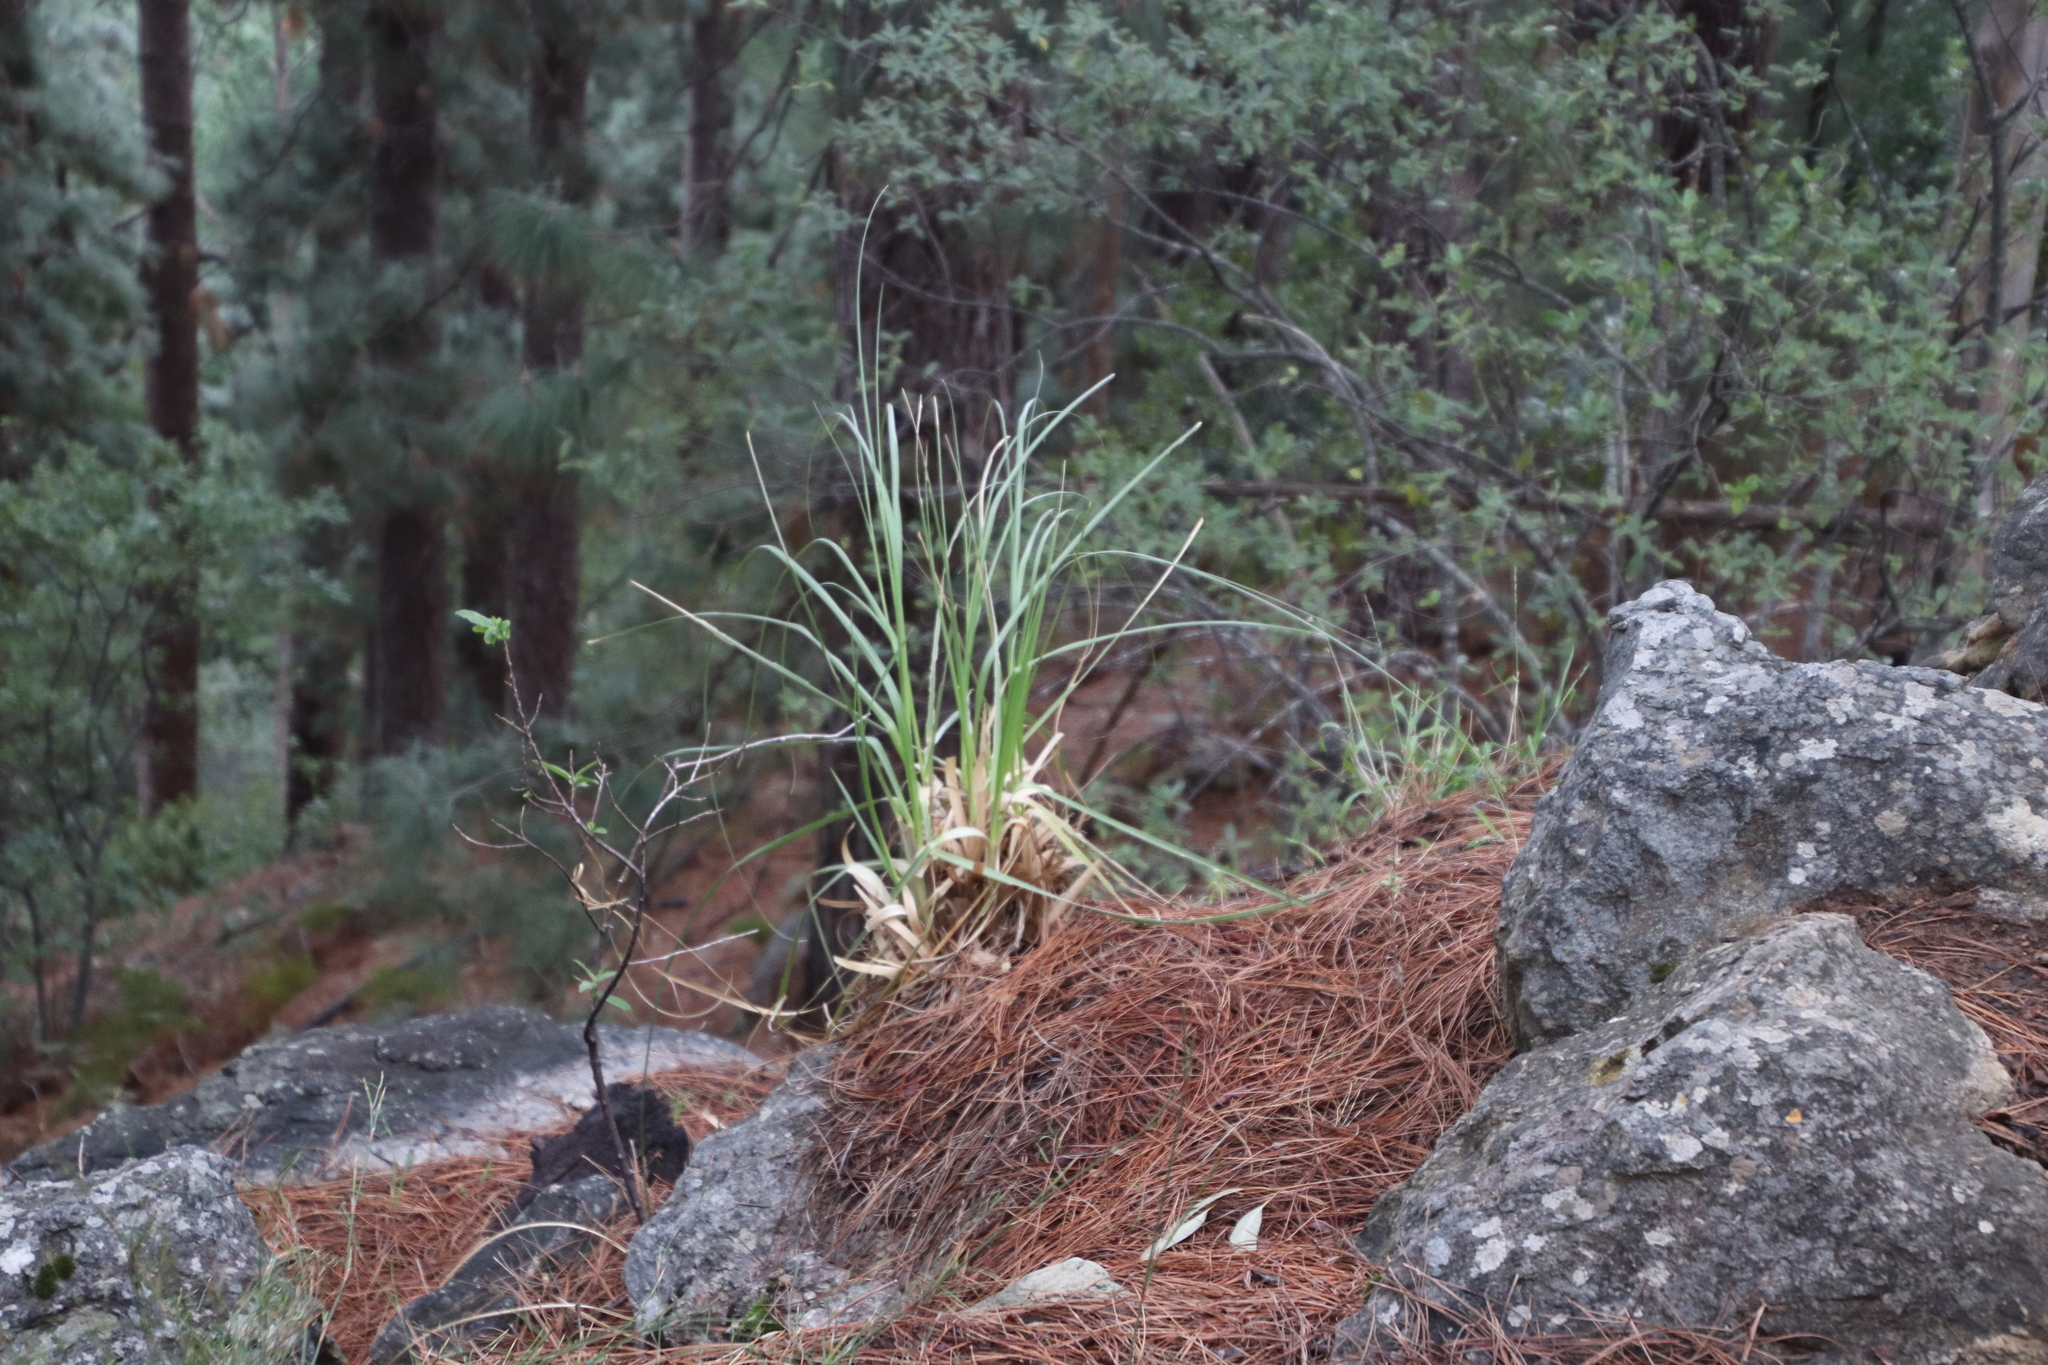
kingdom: Plantae
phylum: Tracheophyta
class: Liliopsida
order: Poales
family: Poaceae
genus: Cortaderia
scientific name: Cortaderia selloana
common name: Uruguayan pampas grass
